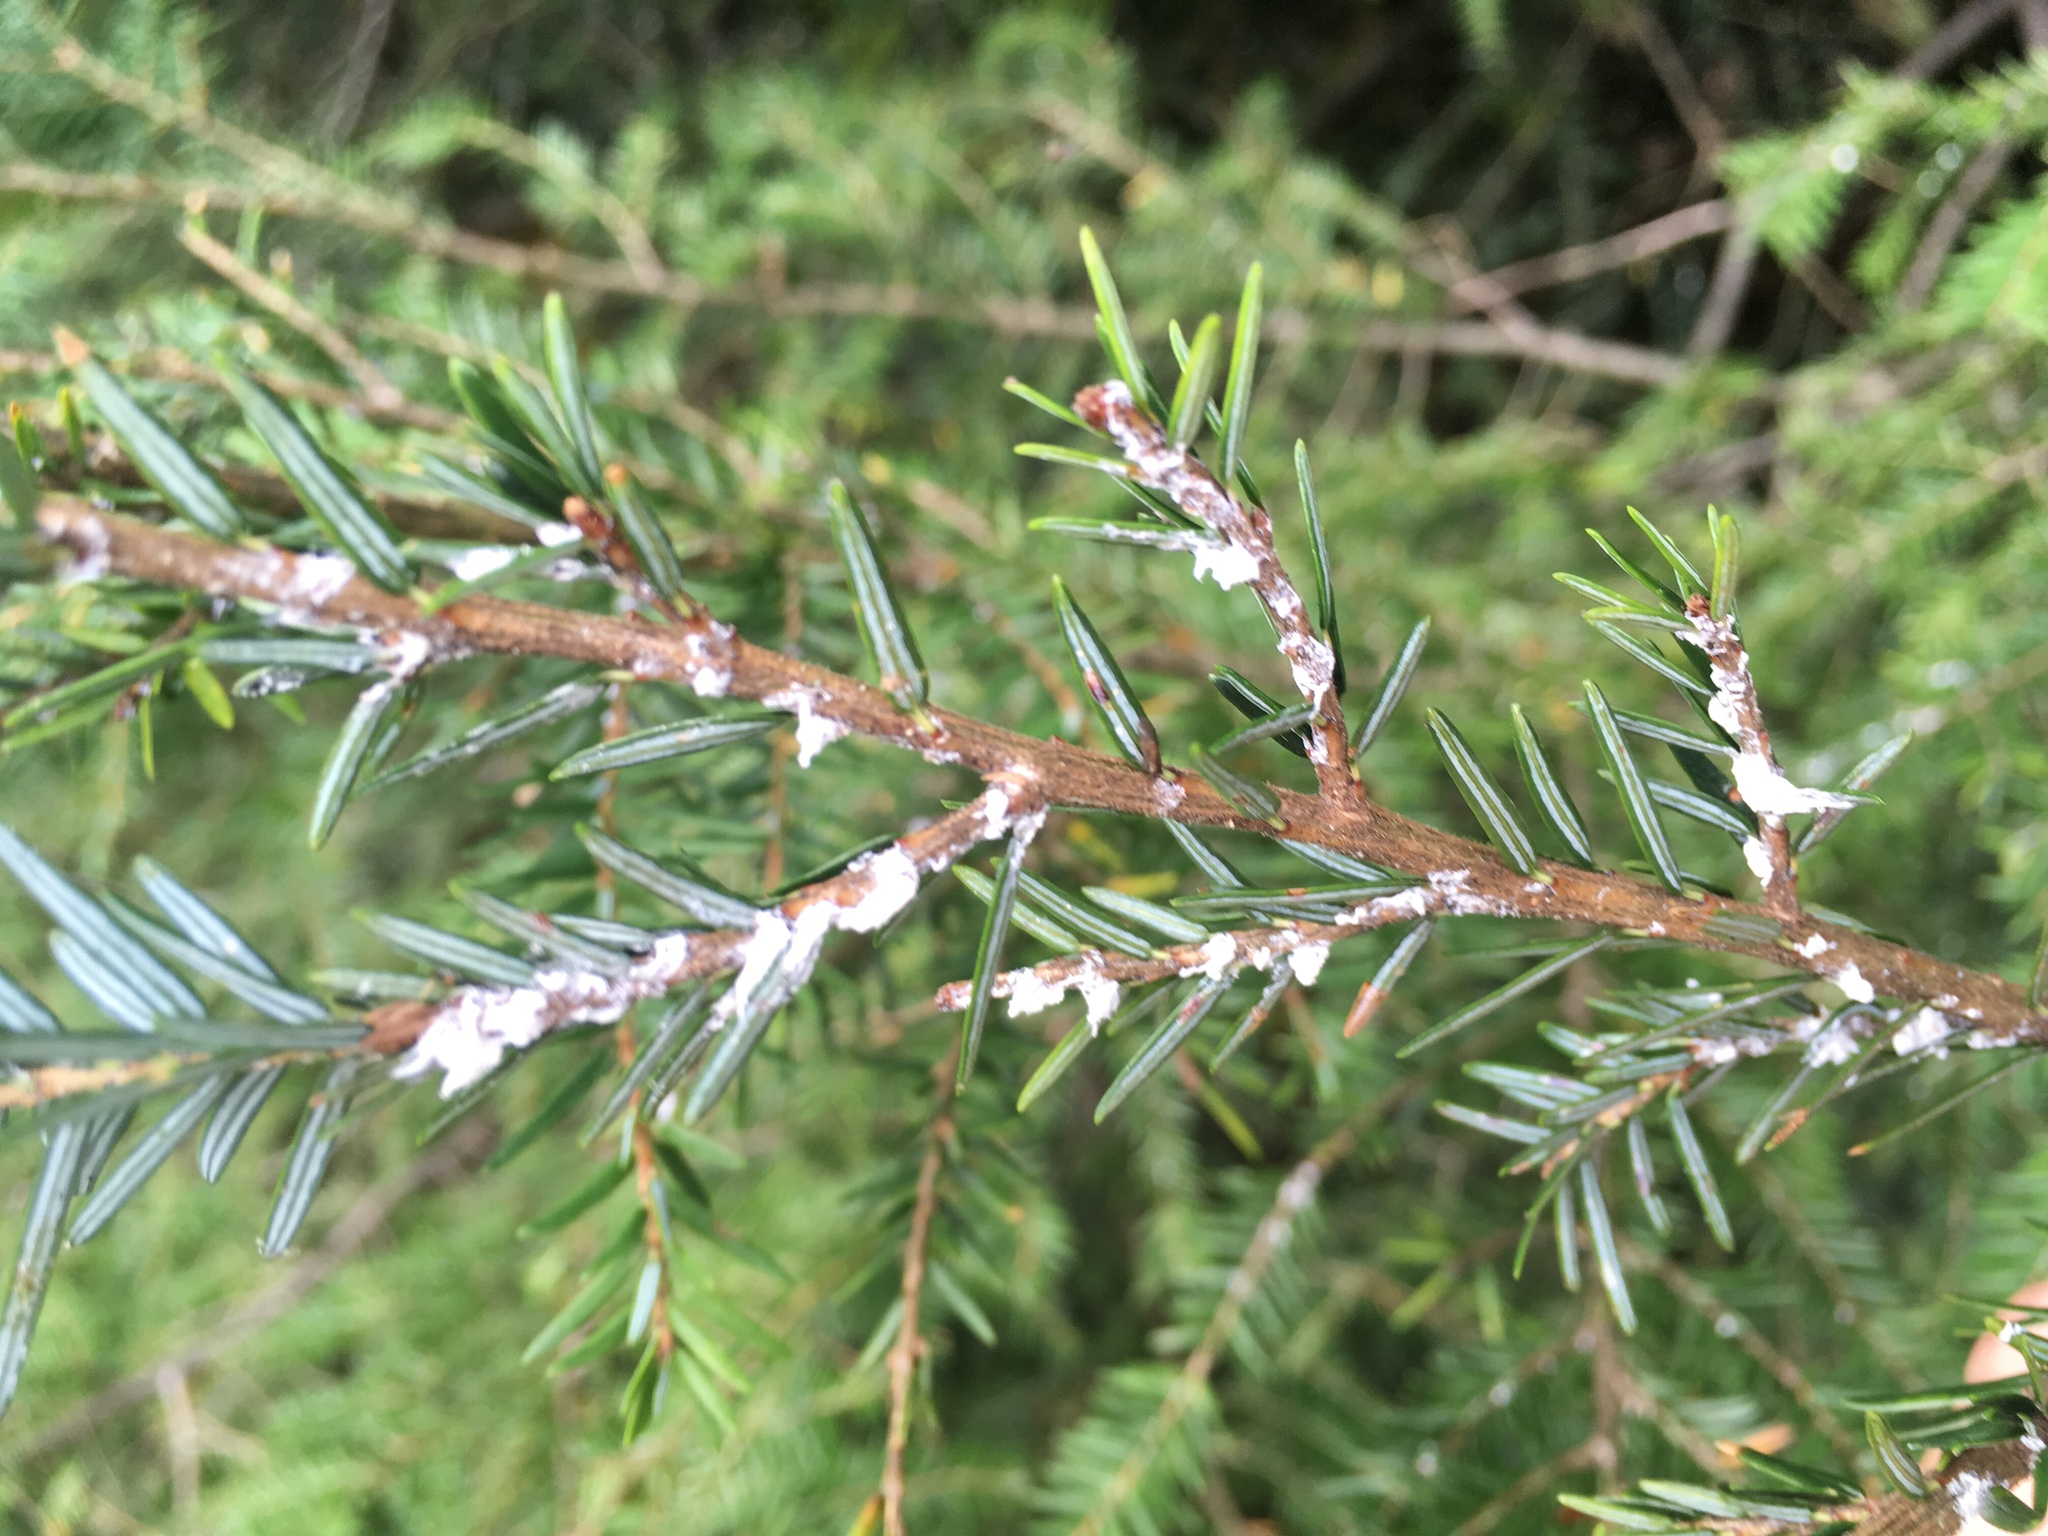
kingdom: Plantae
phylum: Tracheophyta
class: Pinopsida
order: Pinales
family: Pinaceae
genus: Tsuga
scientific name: Tsuga canadensis
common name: Eastern hemlock
